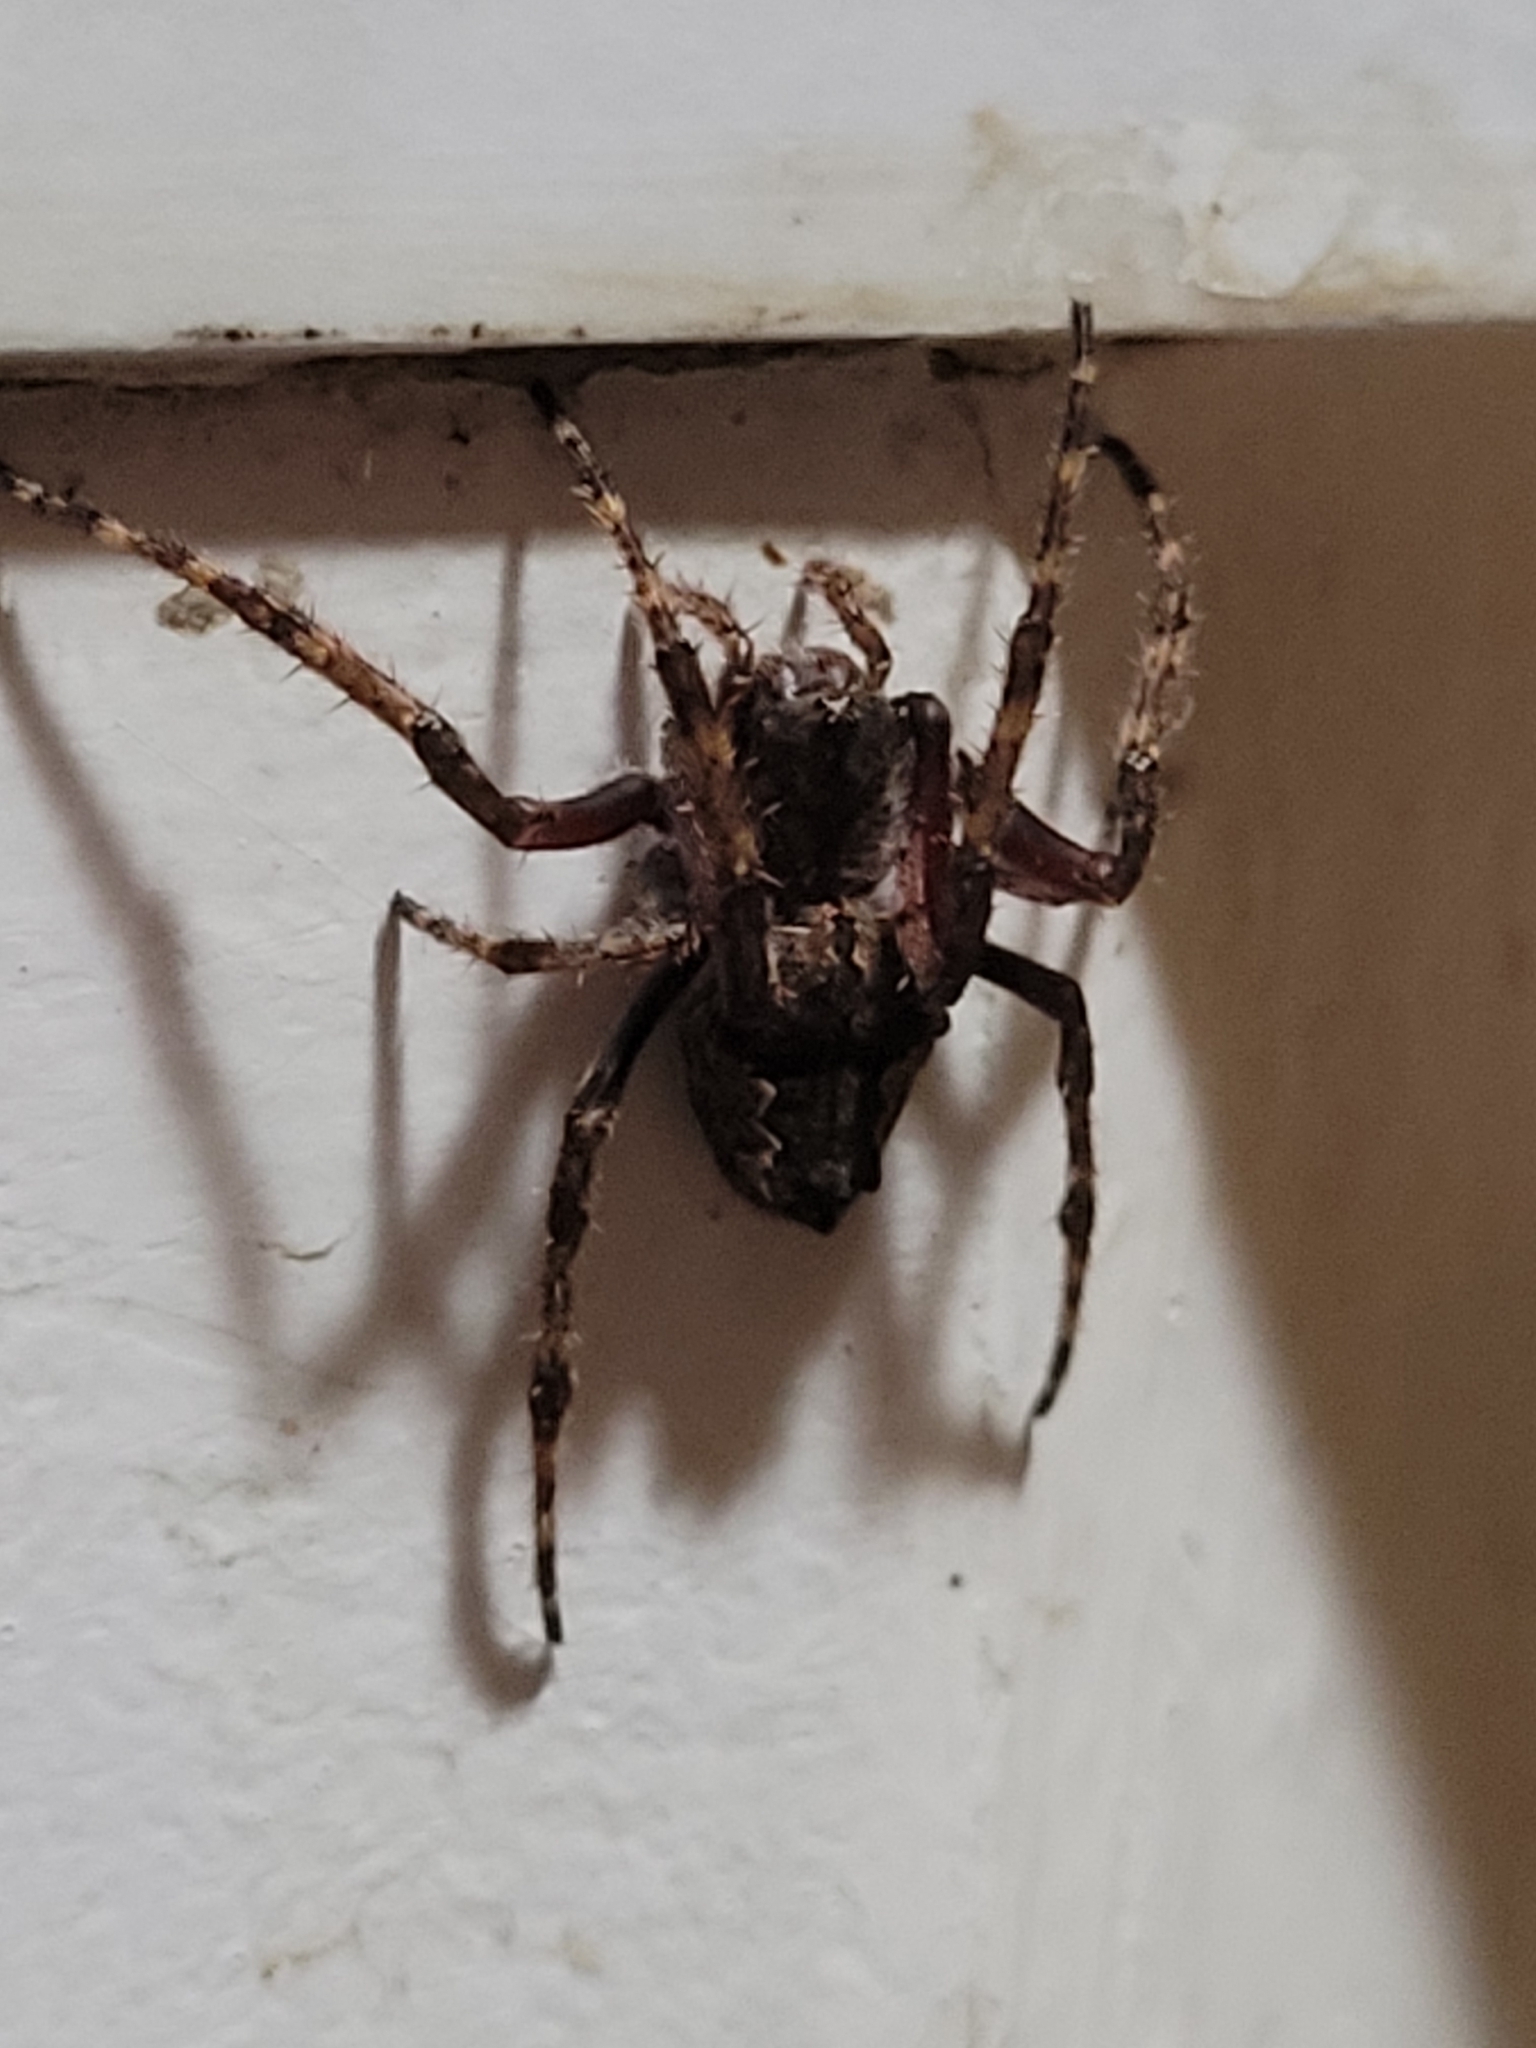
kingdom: Animalia
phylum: Arthropoda
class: Arachnida
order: Araneae
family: Araneidae
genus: Eriophora
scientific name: Eriophora pustulosa
